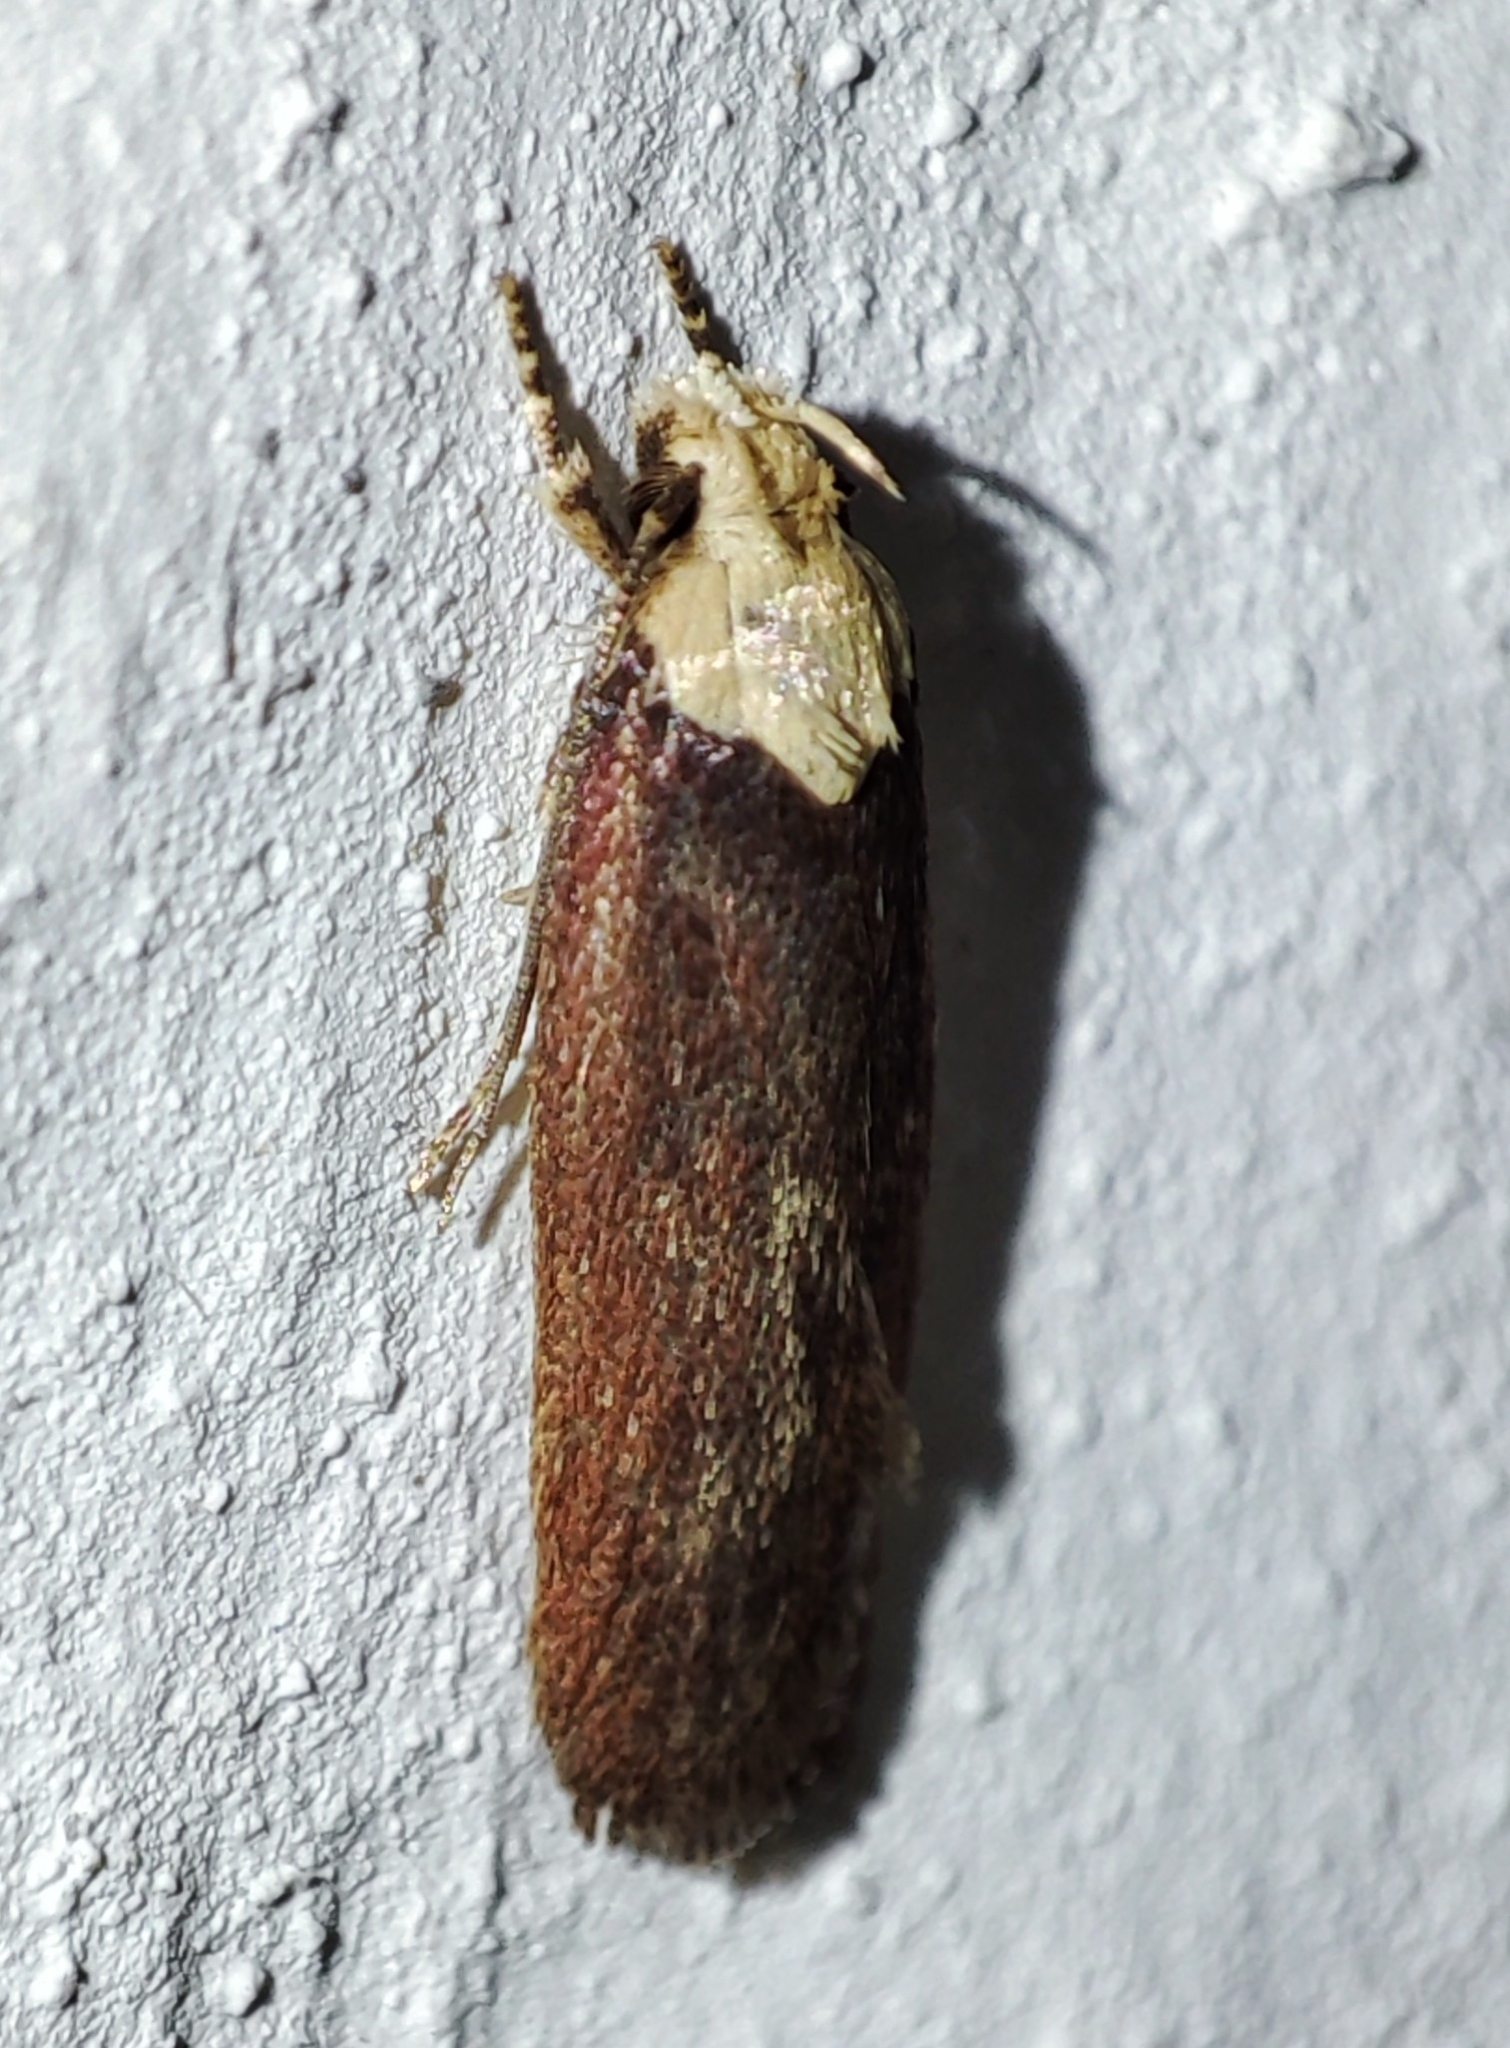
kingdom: Animalia
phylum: Arthropoda
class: Insecta
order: Lepidoptera
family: Depressariidae
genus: Depressaria
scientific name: Depressaria depressana
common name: Lost flat-body
